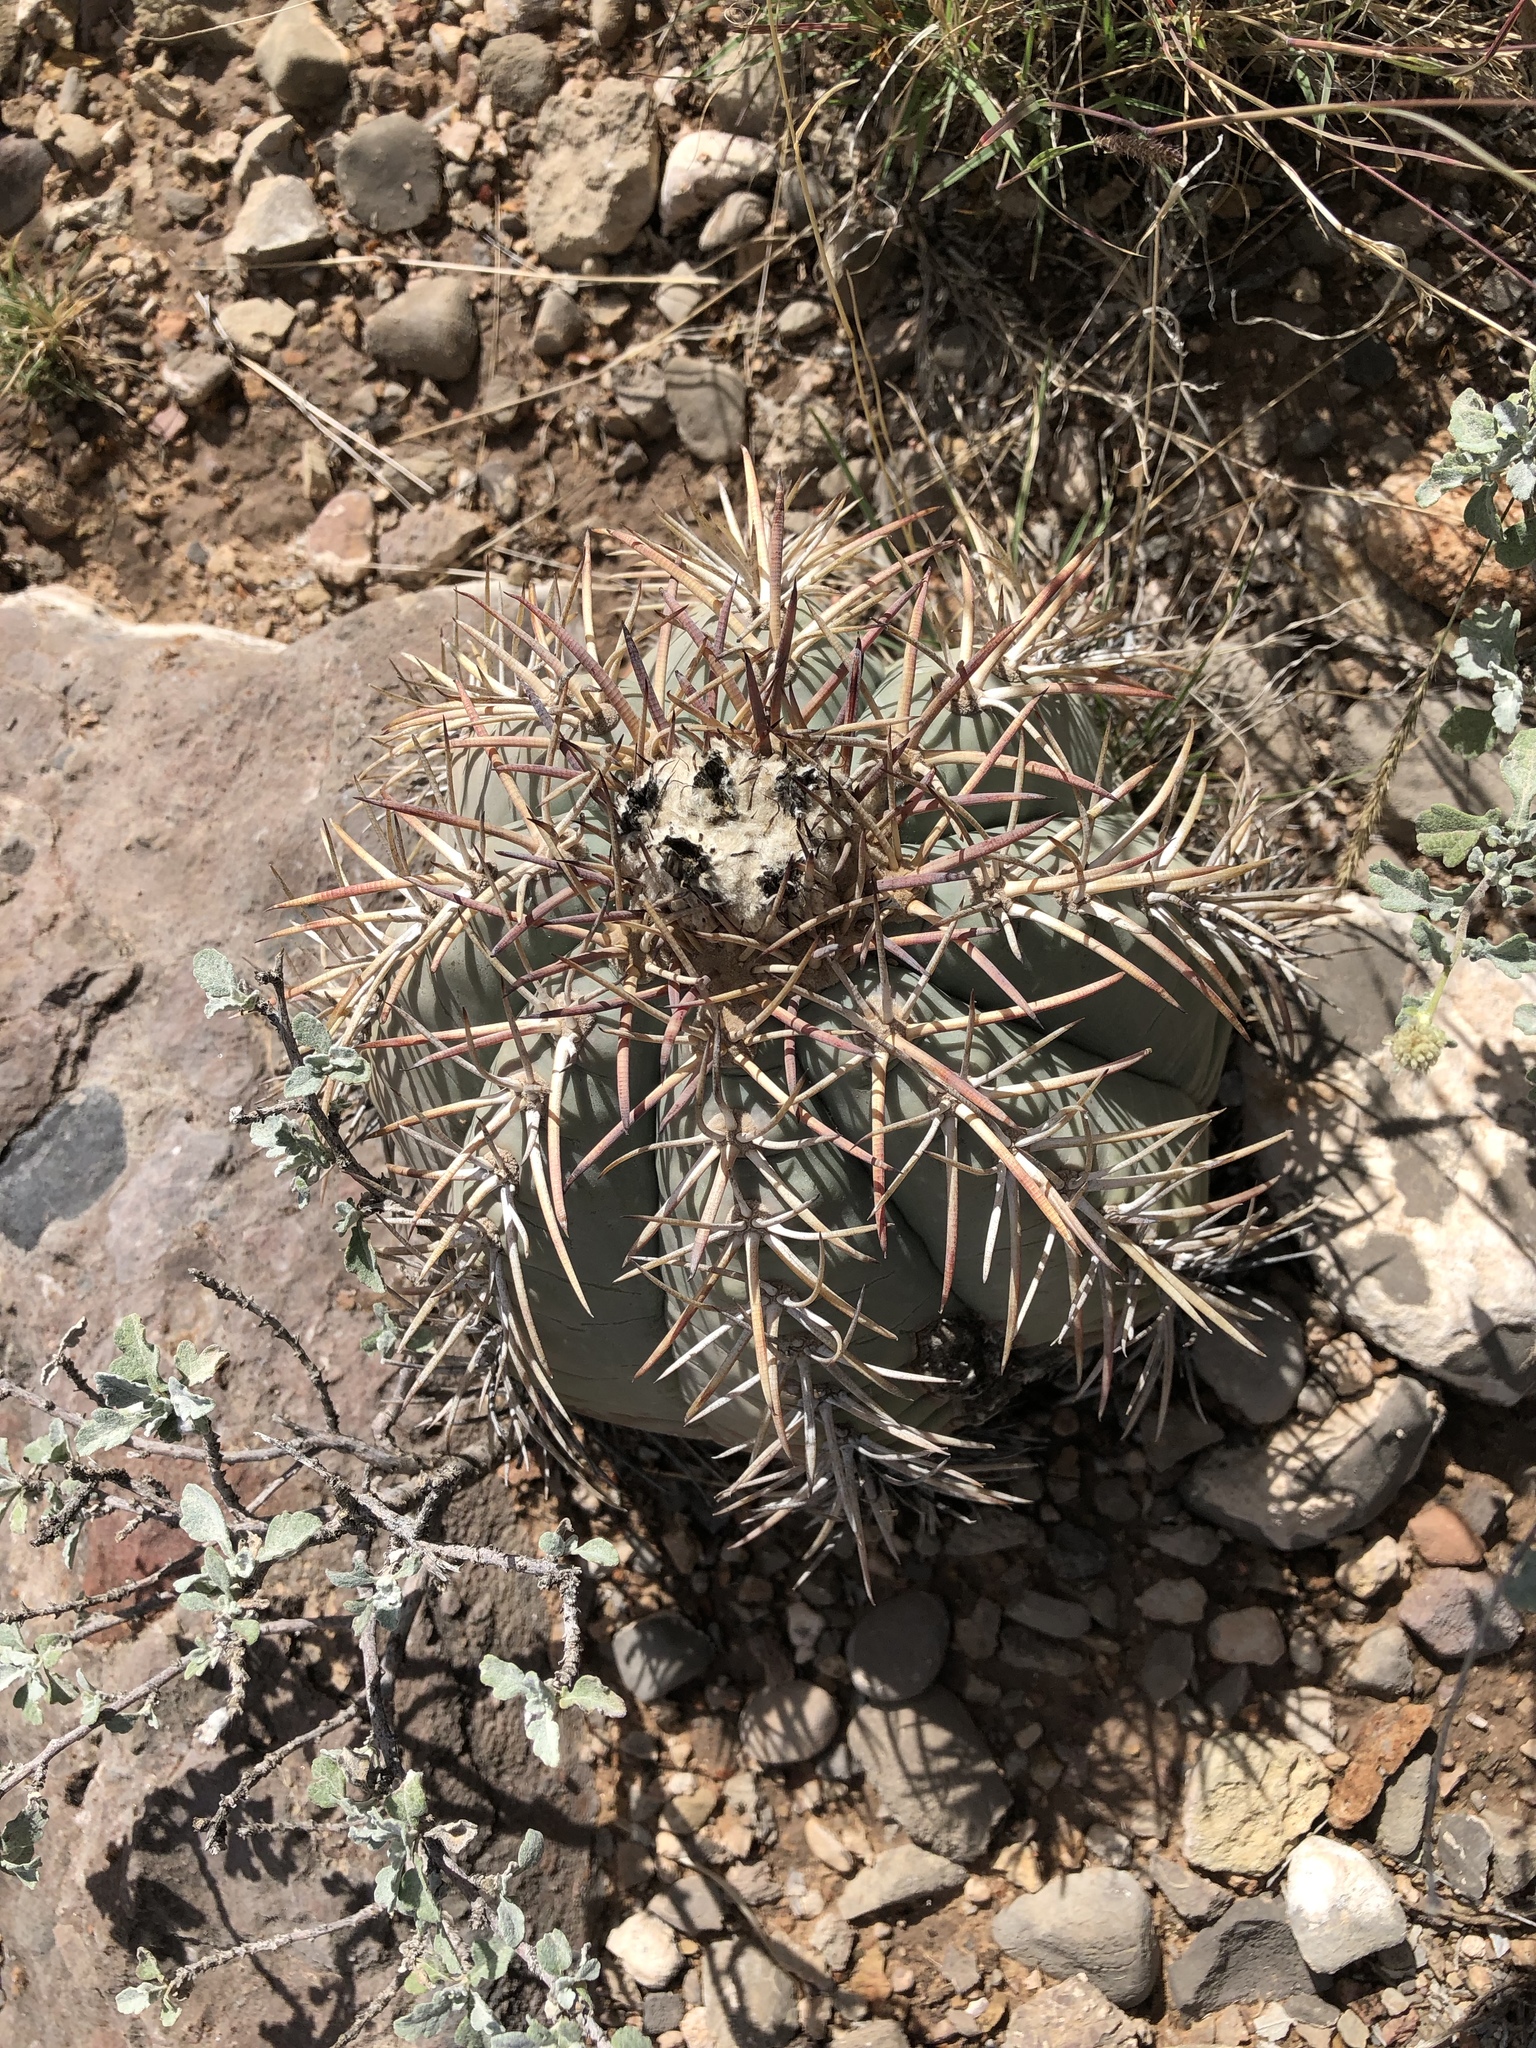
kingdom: Plantae
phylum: Tracheophyta
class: Magnoliopsida
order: Caryophyllales
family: Cactaceae
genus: Echinocactus
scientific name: Echinocactus horizonthalonius
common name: Devilshead
